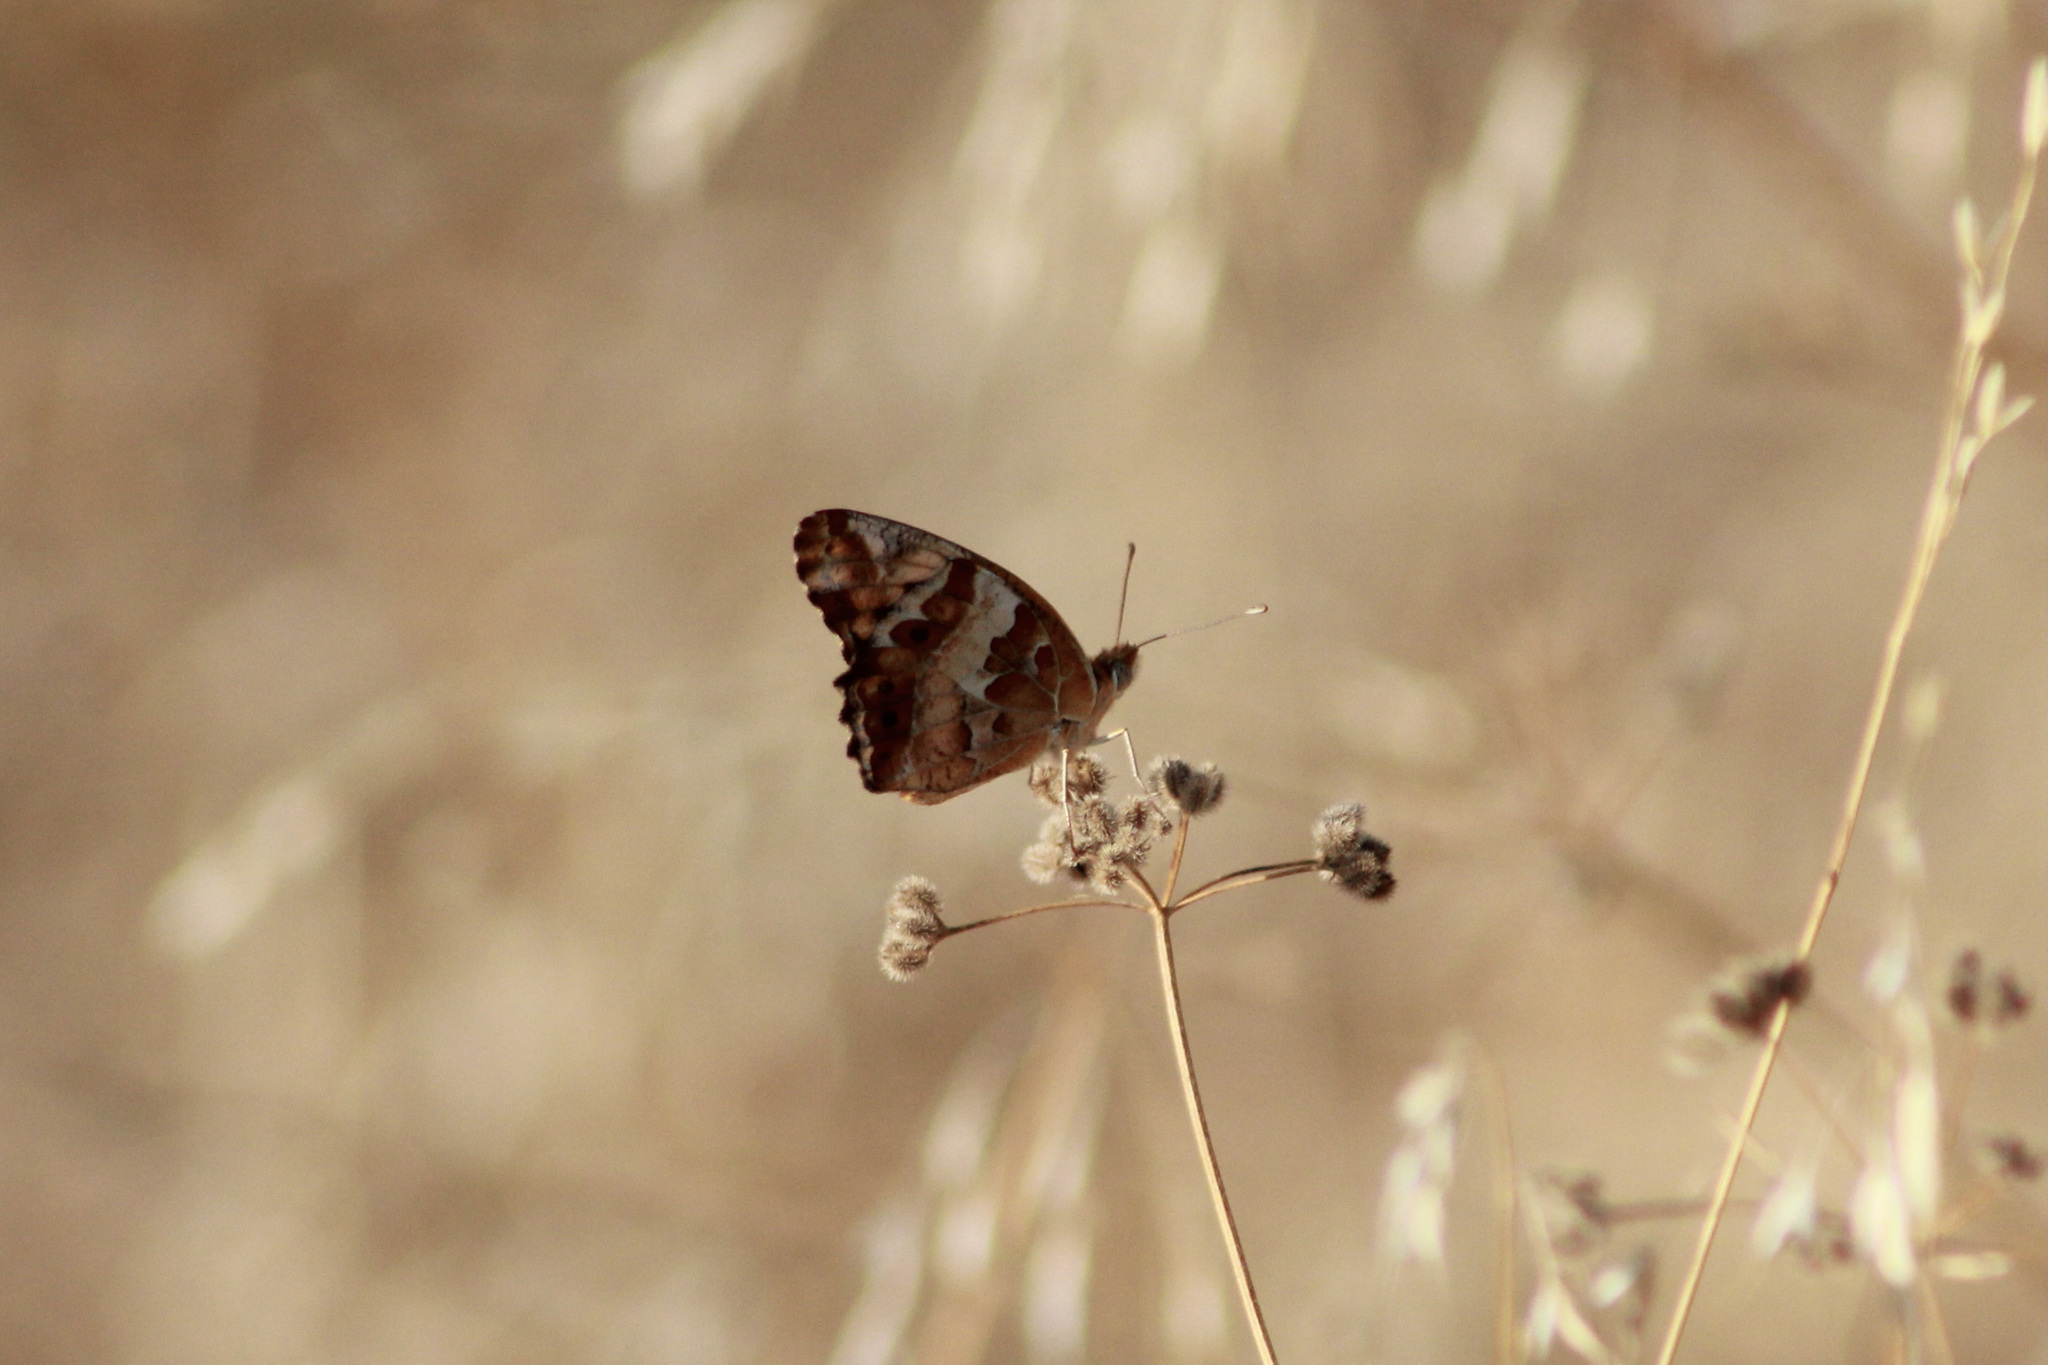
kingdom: Animalia
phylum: Arthropoda
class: Insecta
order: Lepidoptera
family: Nymphalidae
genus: Euptoieta
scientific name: Euptoieta claudia
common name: Variegated fritillary
